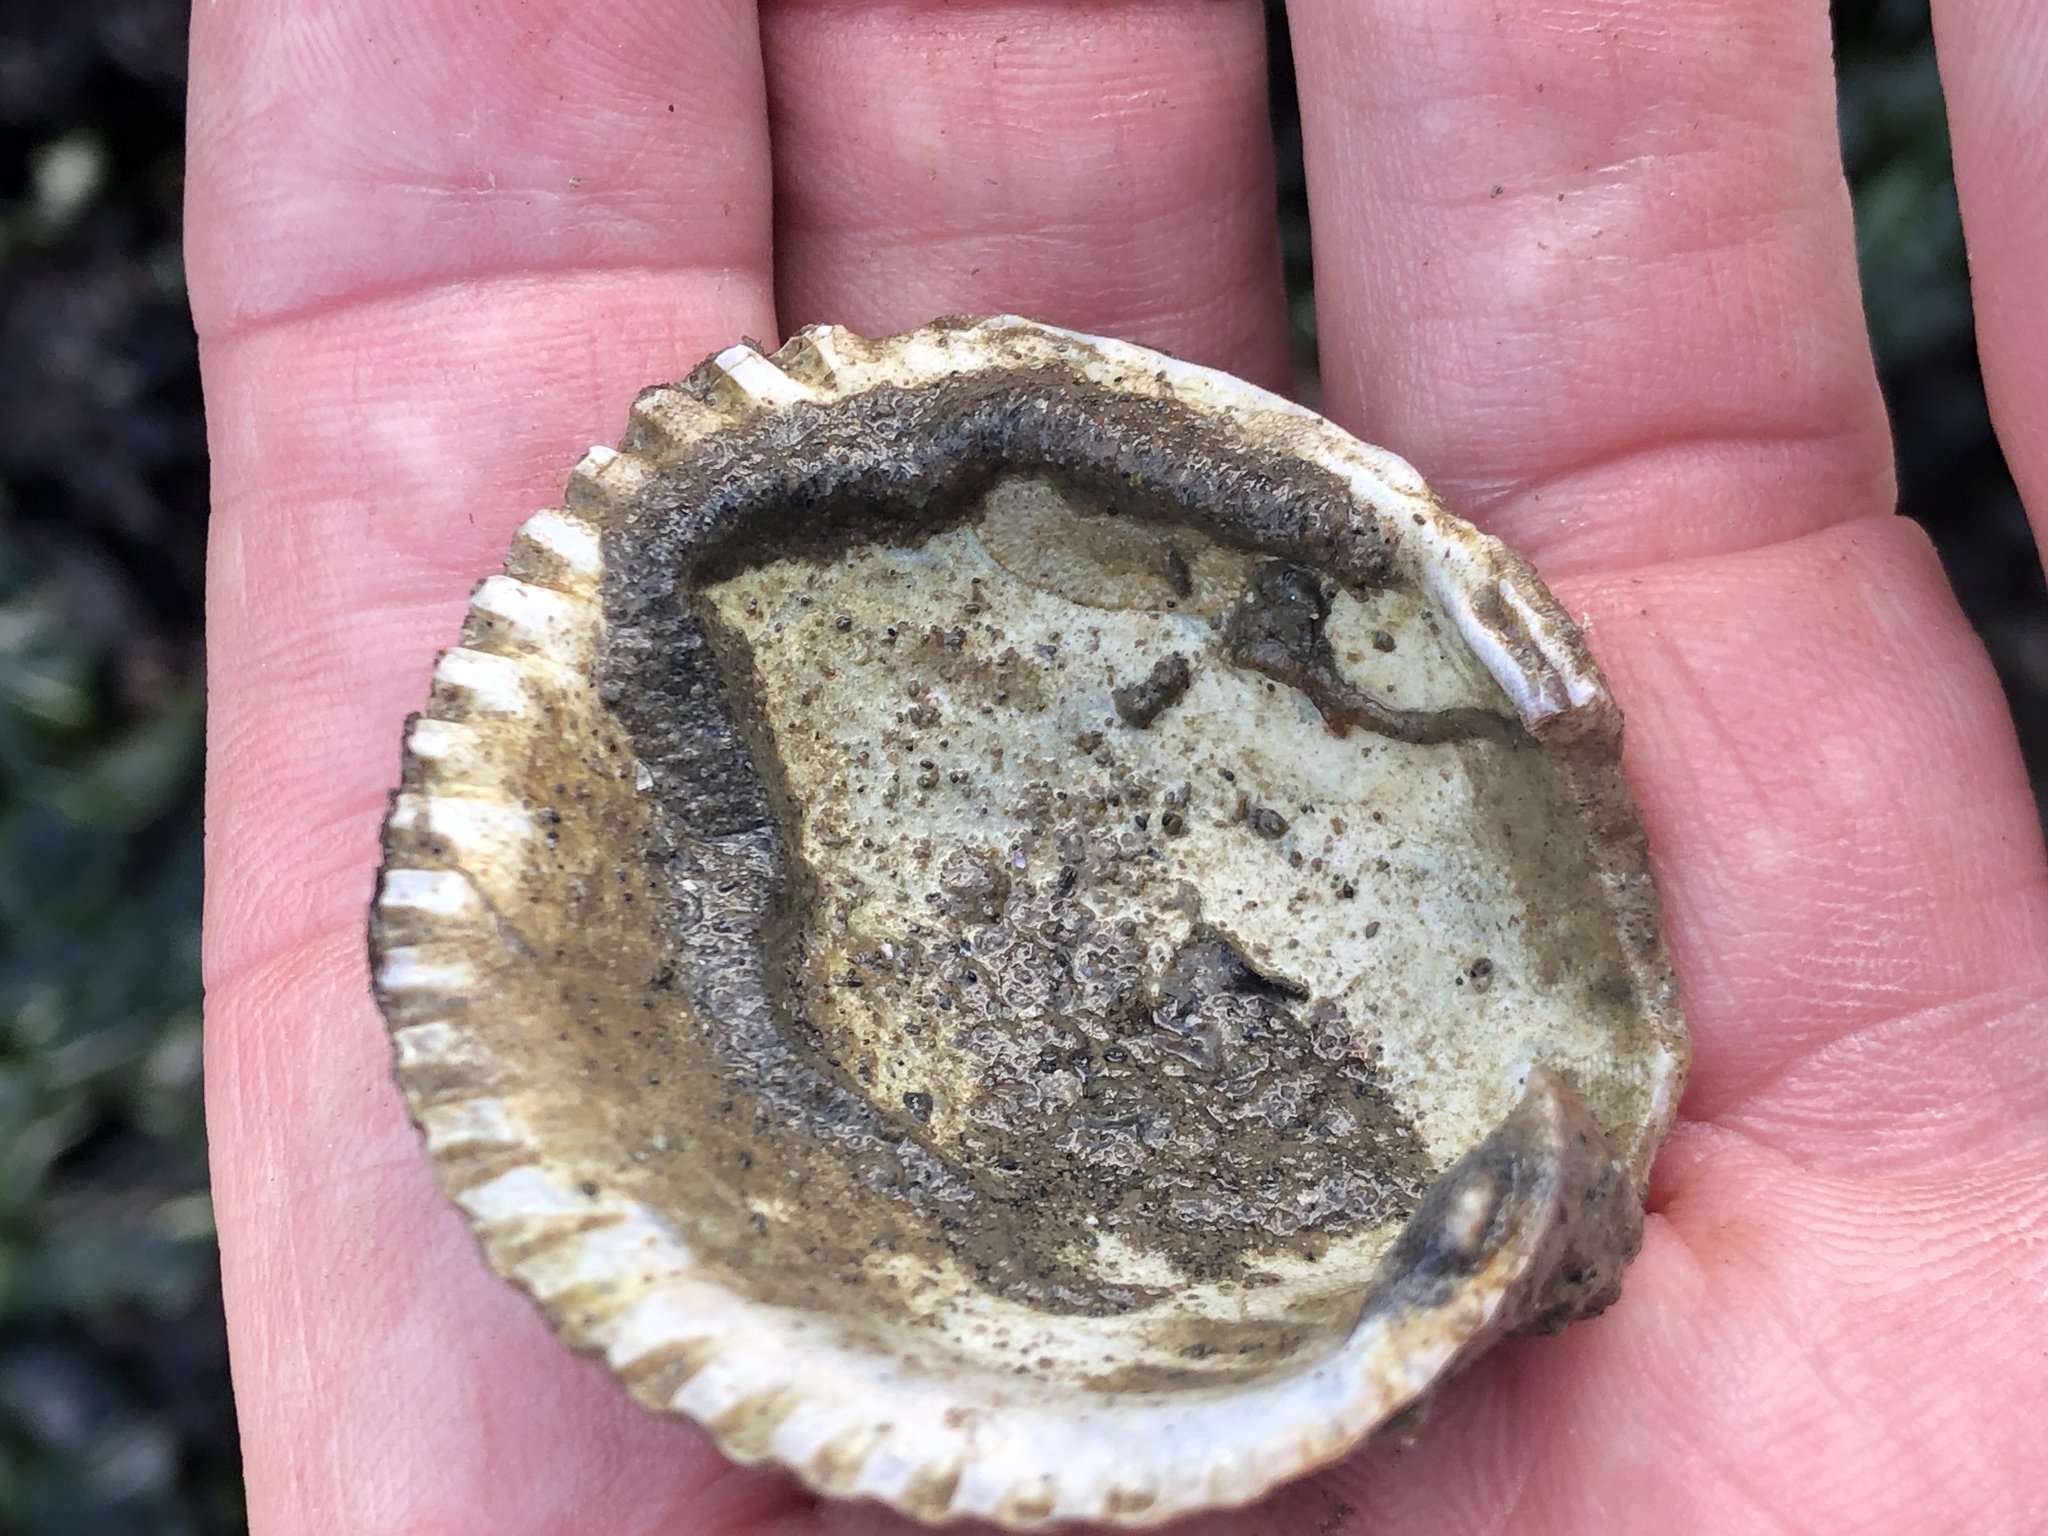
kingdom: Animalia
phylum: Mollusca
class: Bivalvia
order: Cardiida
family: Cardiidae
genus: Clinocardium
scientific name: Clinocardium nuttallii
